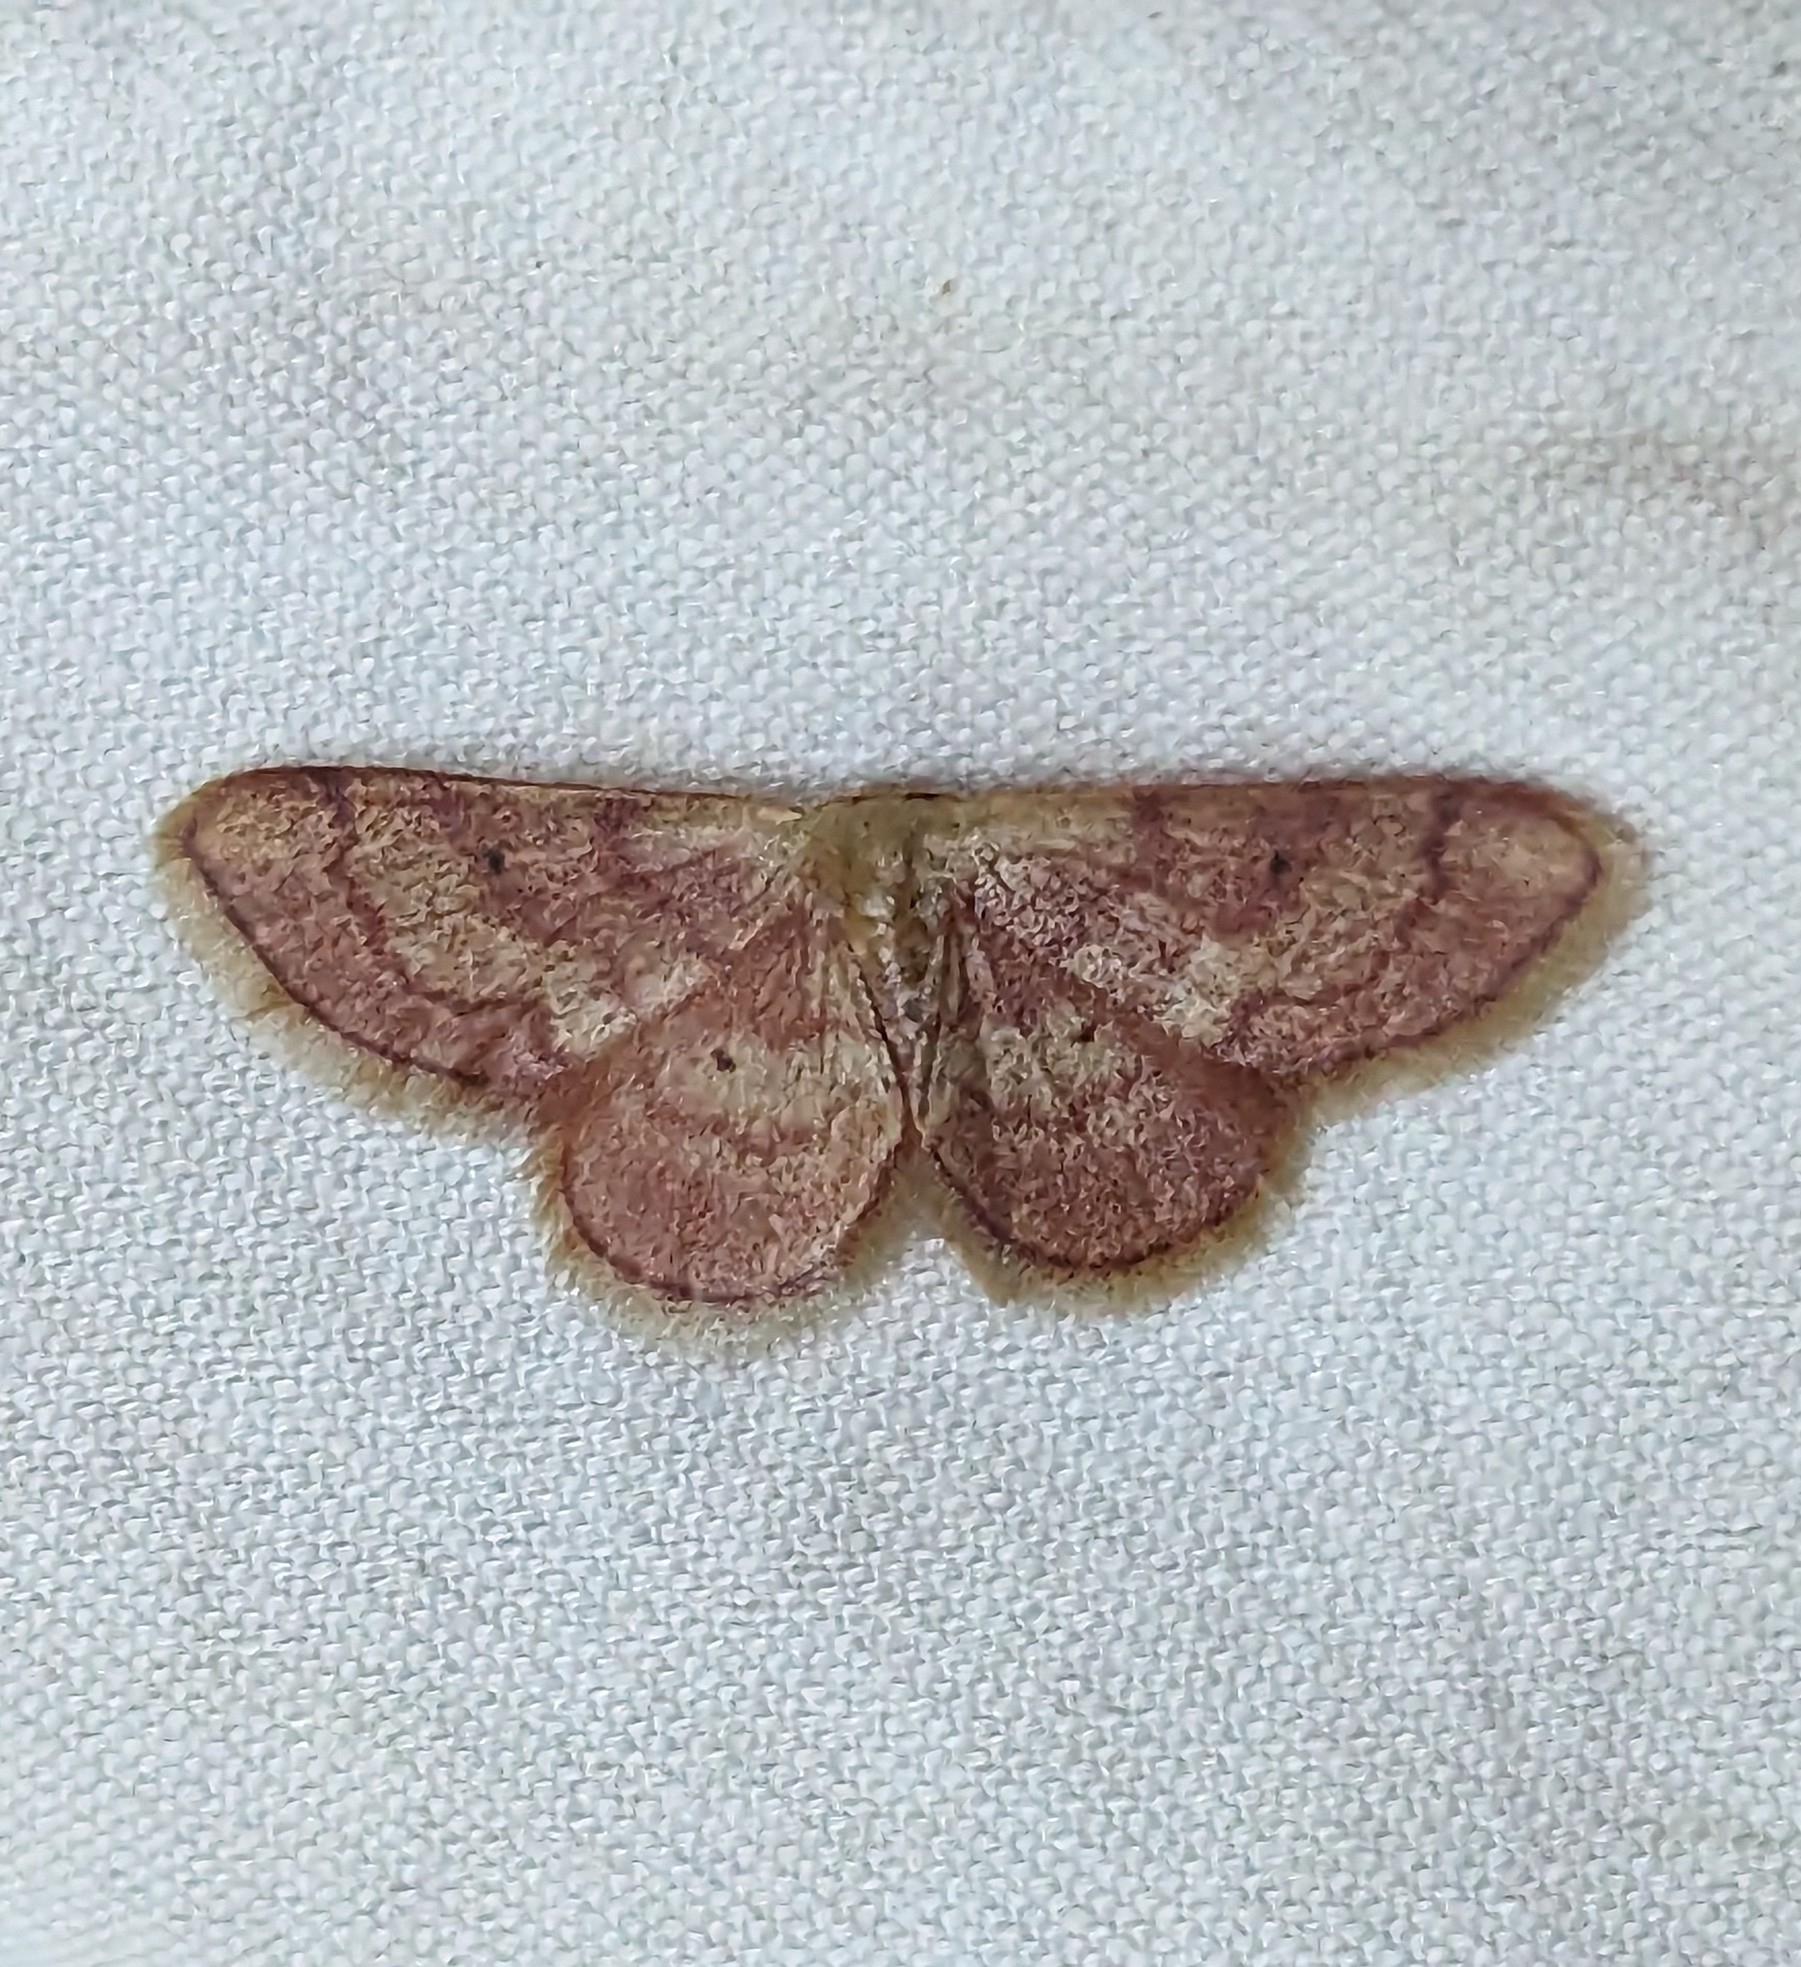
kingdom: Animalia
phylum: Arthropoda
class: Insecta
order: Lepidoptera
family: Geometridae
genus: Idaea
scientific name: Idaea demissaria
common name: Red-bordered wave
